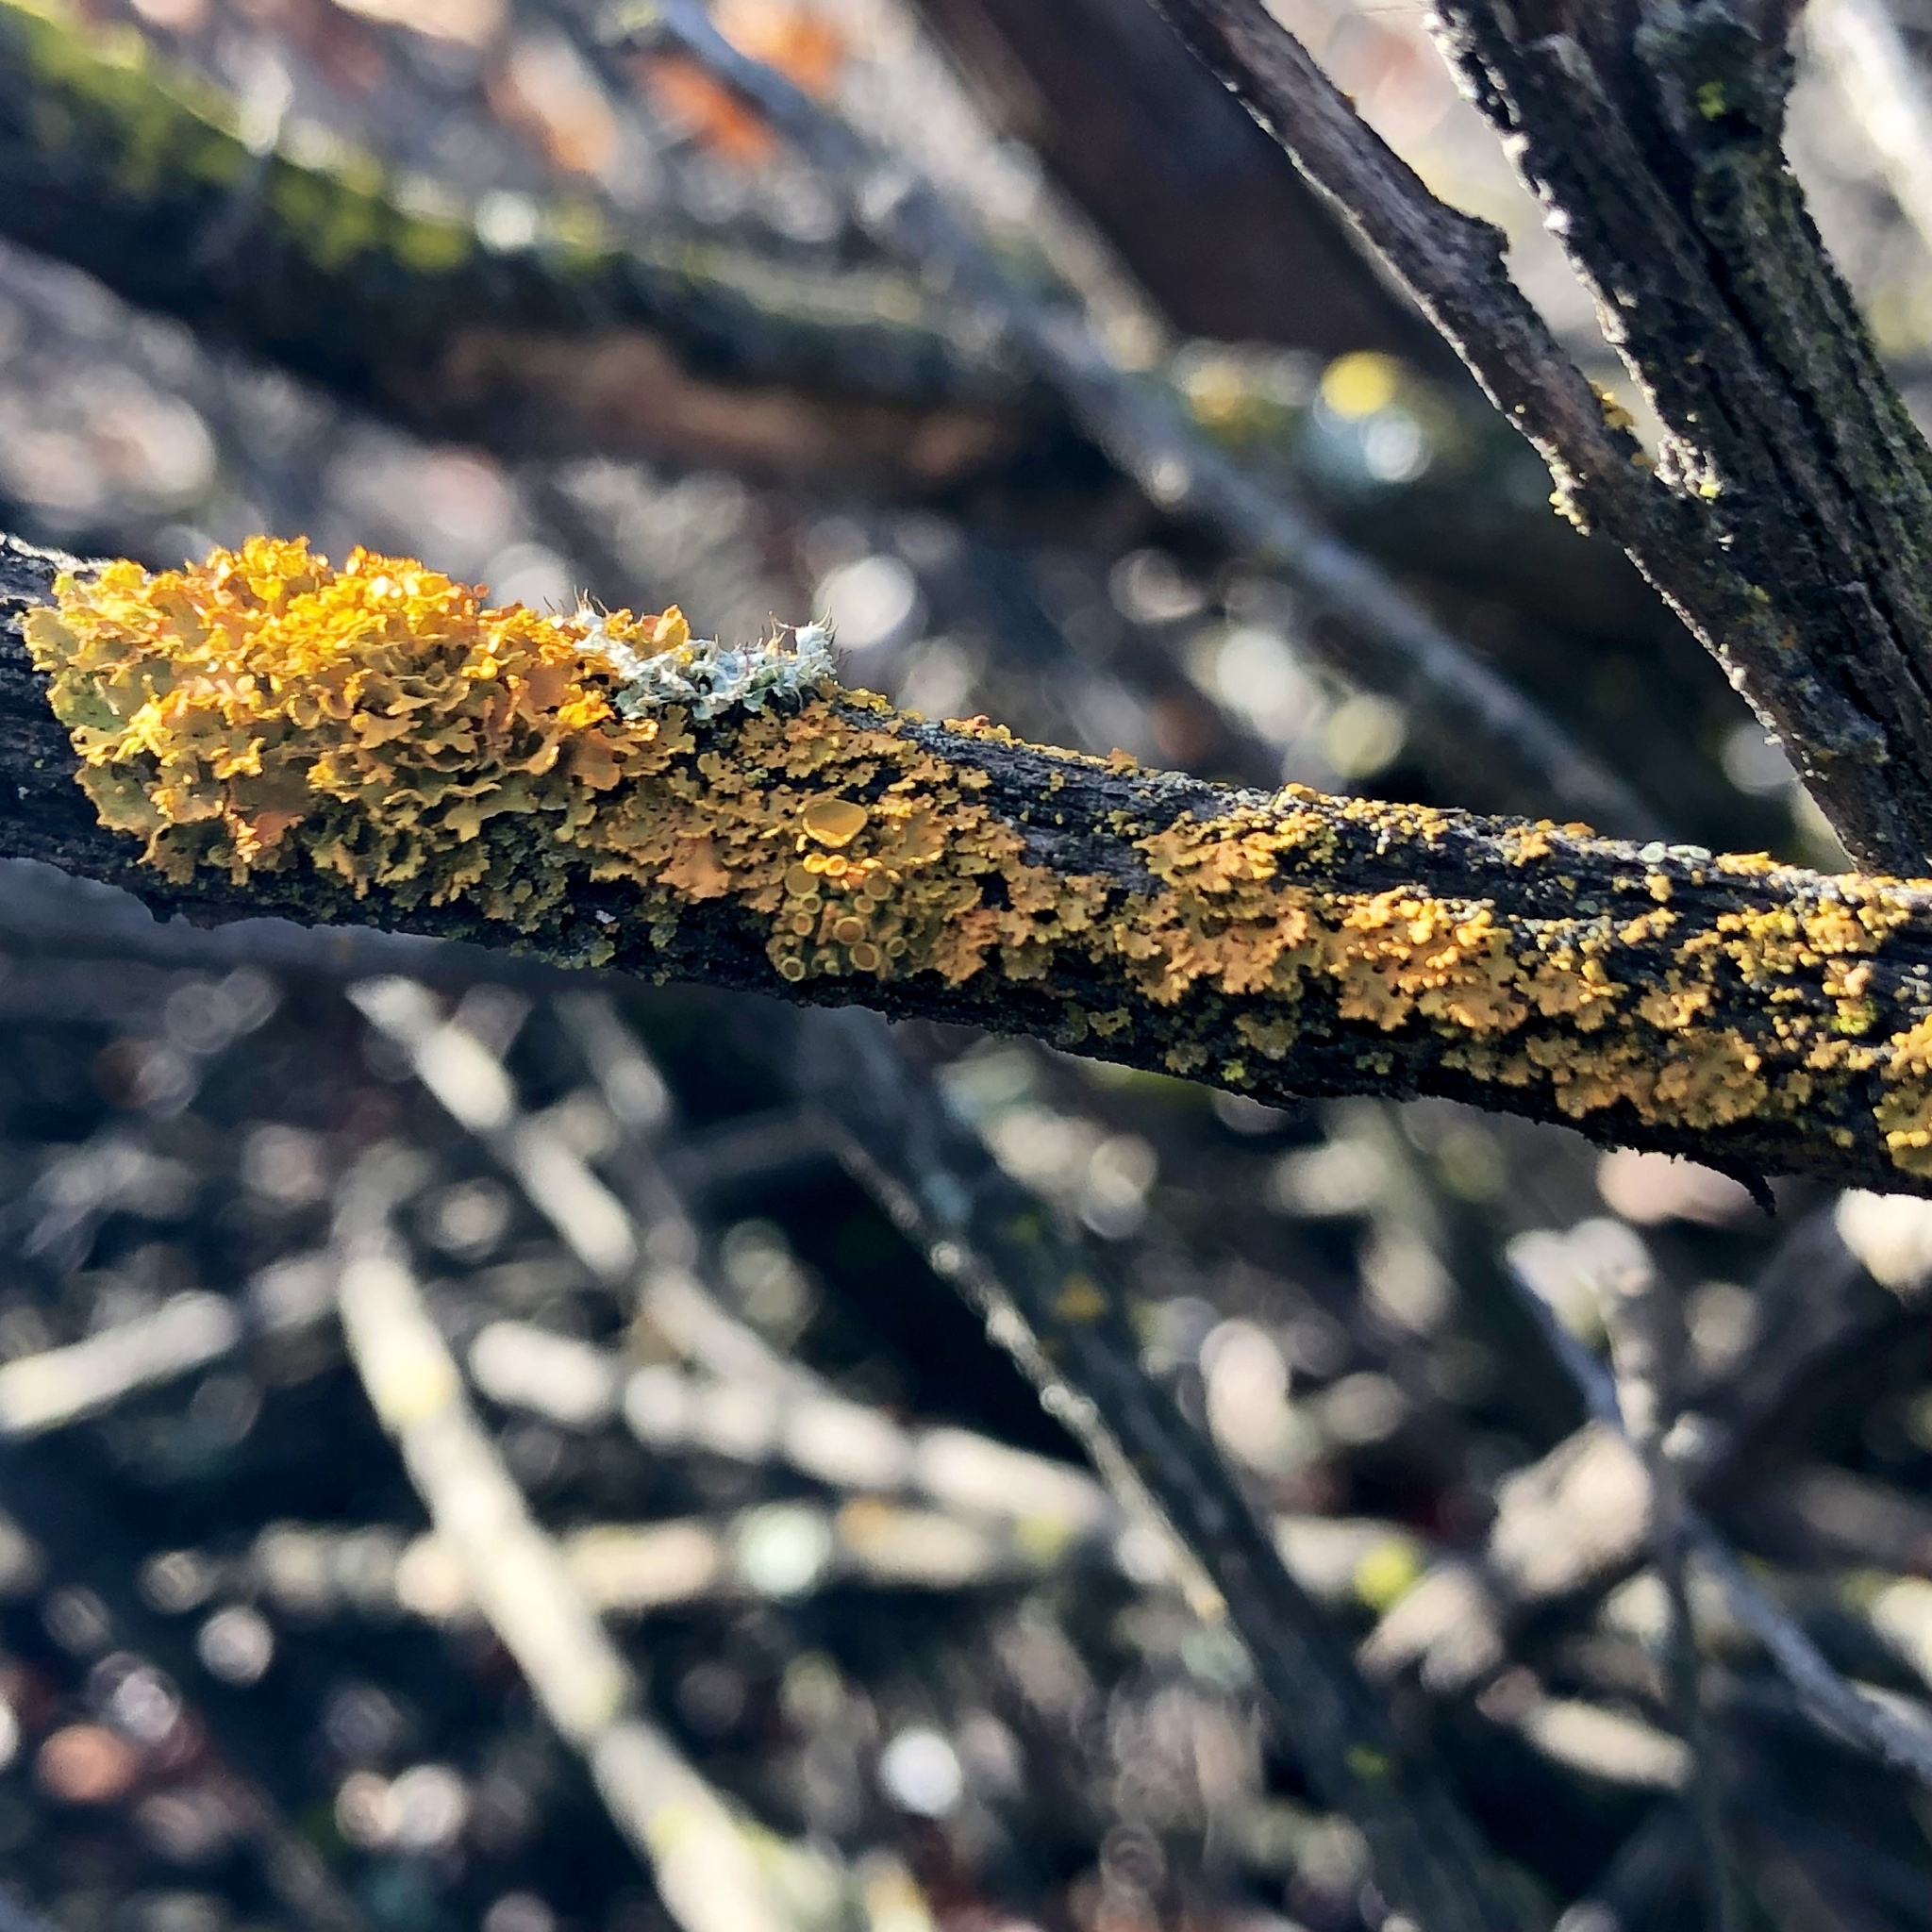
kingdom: Fungi
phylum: Ascomycota
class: Lecanoromycetes
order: Teloschistales
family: Teloschistaceae
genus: Gallowayella
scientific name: Gallowayella fulva
